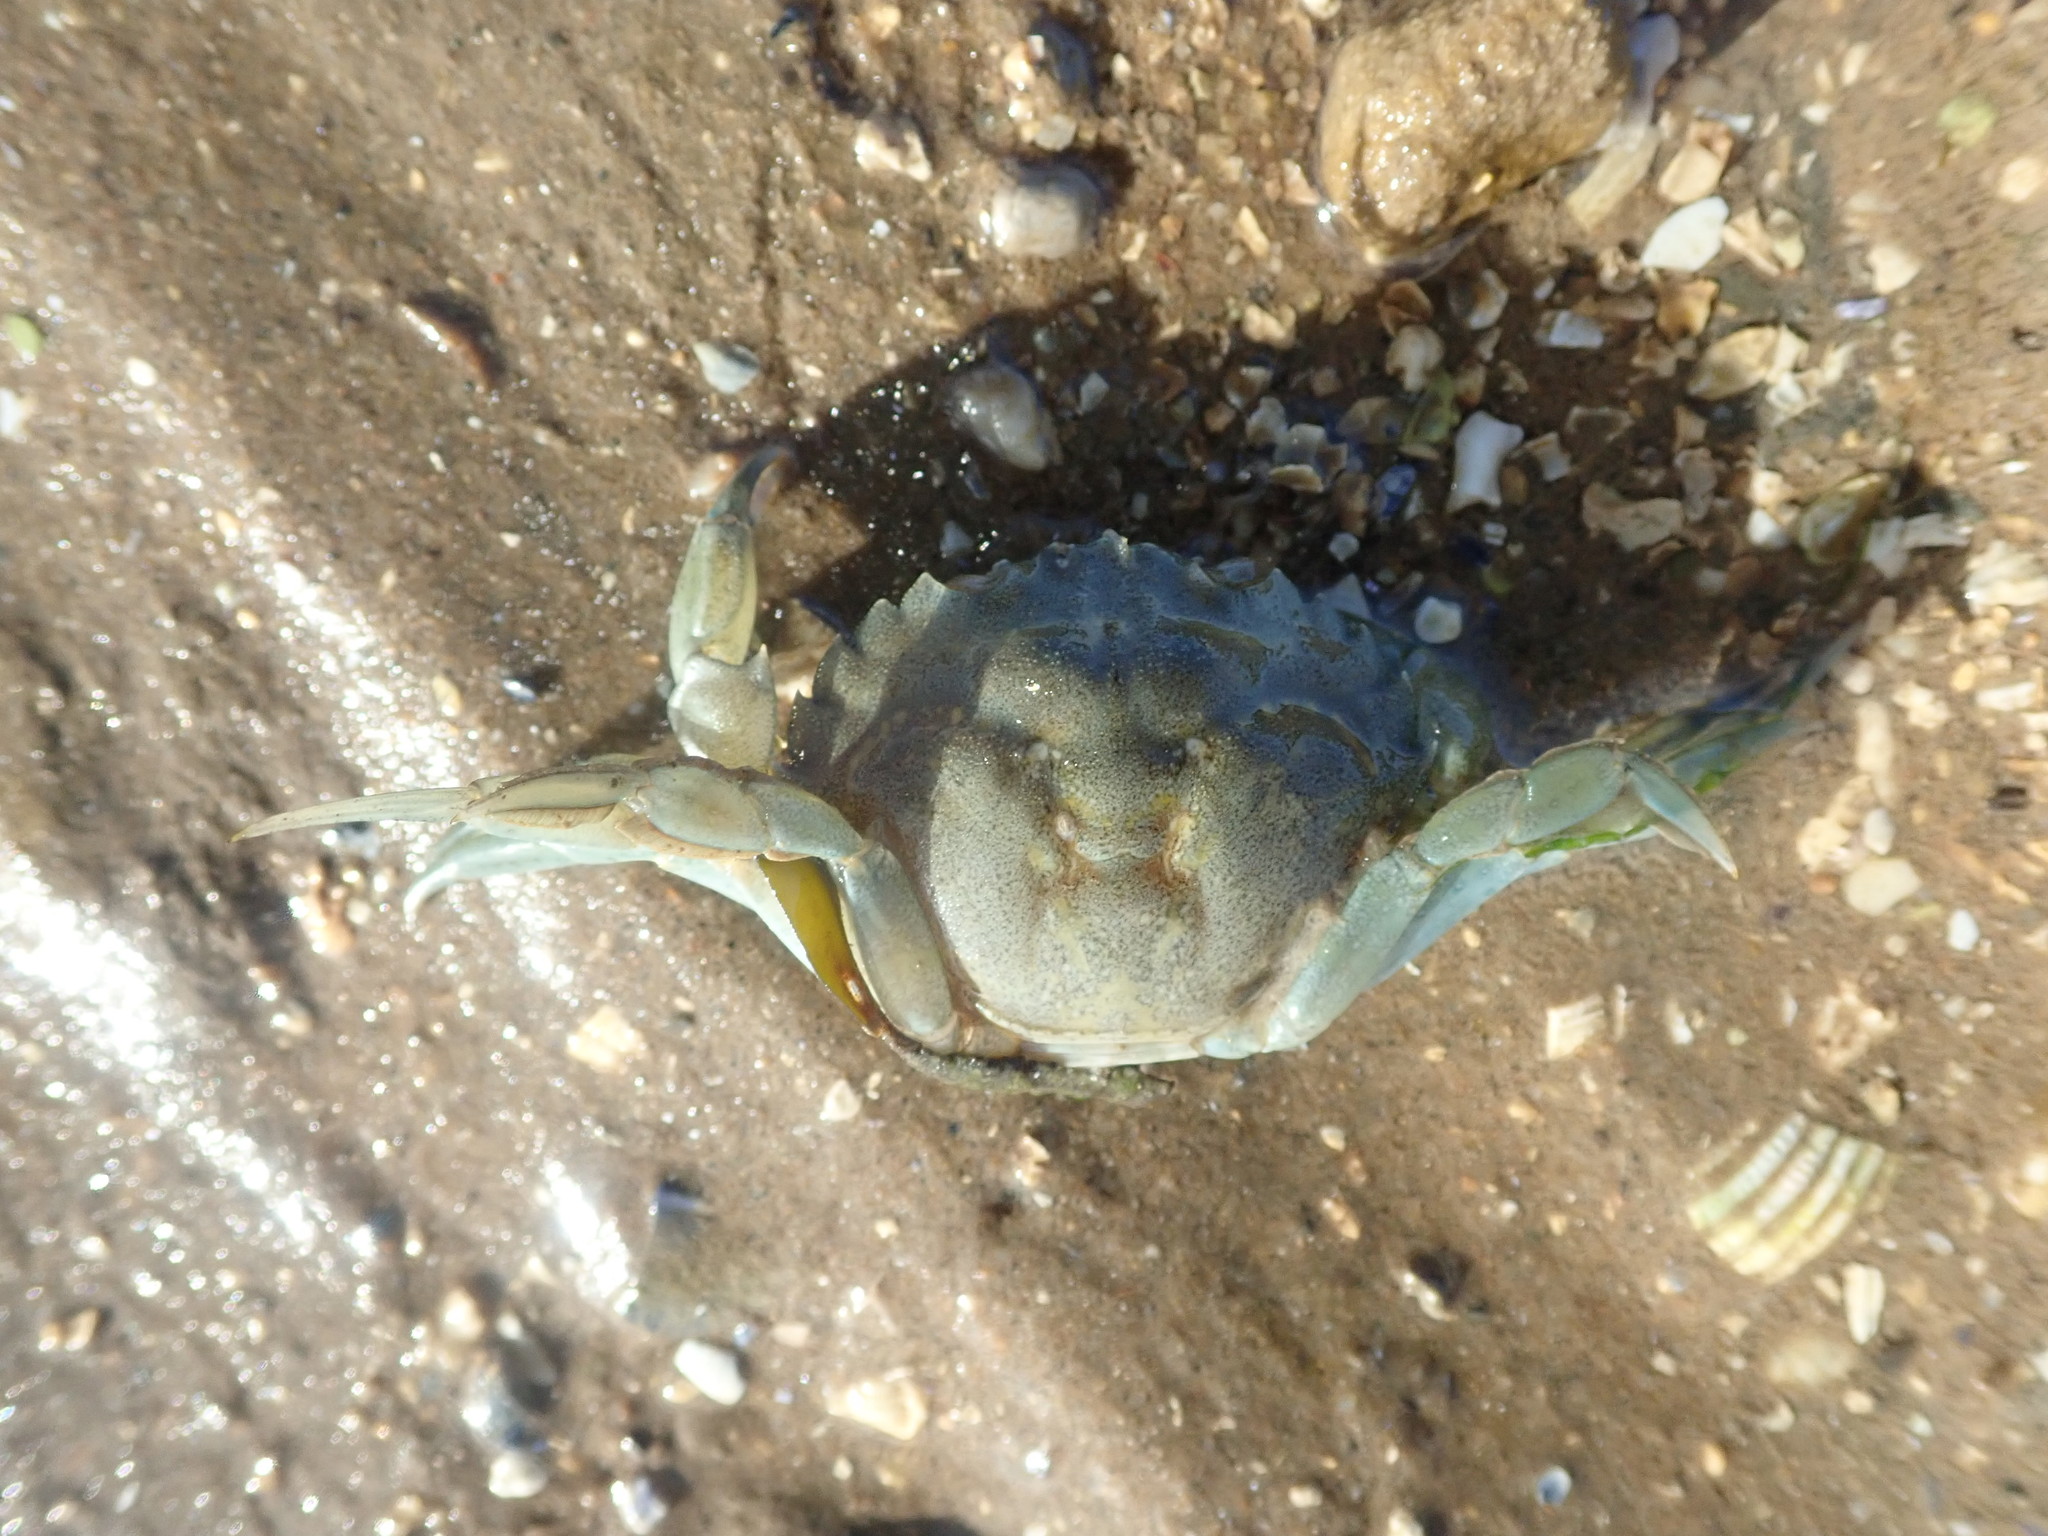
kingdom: Animalia
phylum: Arthropoda
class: Malacostraca
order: Decapoda
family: Carcinidae
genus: Carcinus
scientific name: Carcinus maenas
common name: European green crab
